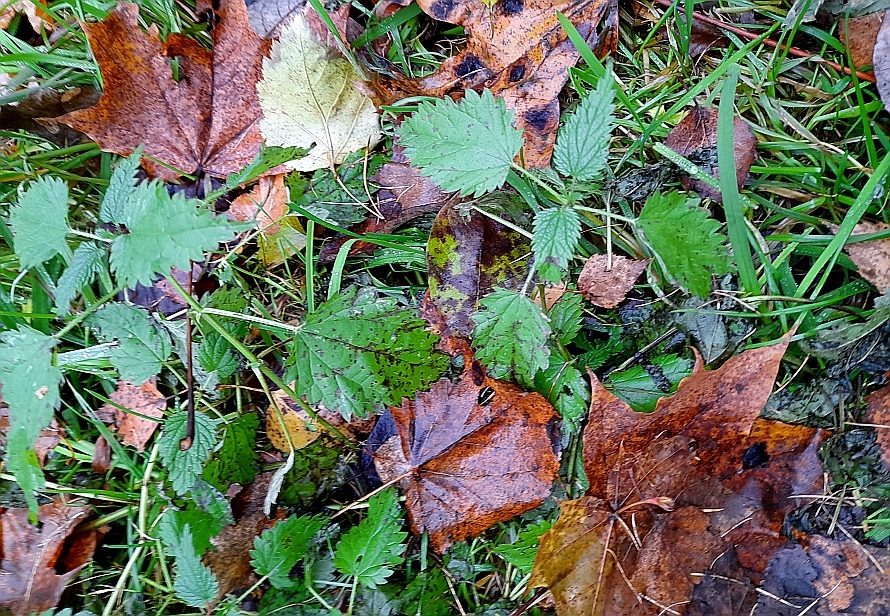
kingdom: Plantae
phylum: Tracheophyta
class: Magnoliopsida
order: Rosales
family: Urticaceae
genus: Urtica
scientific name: Urtica dioica
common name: Common nettle
